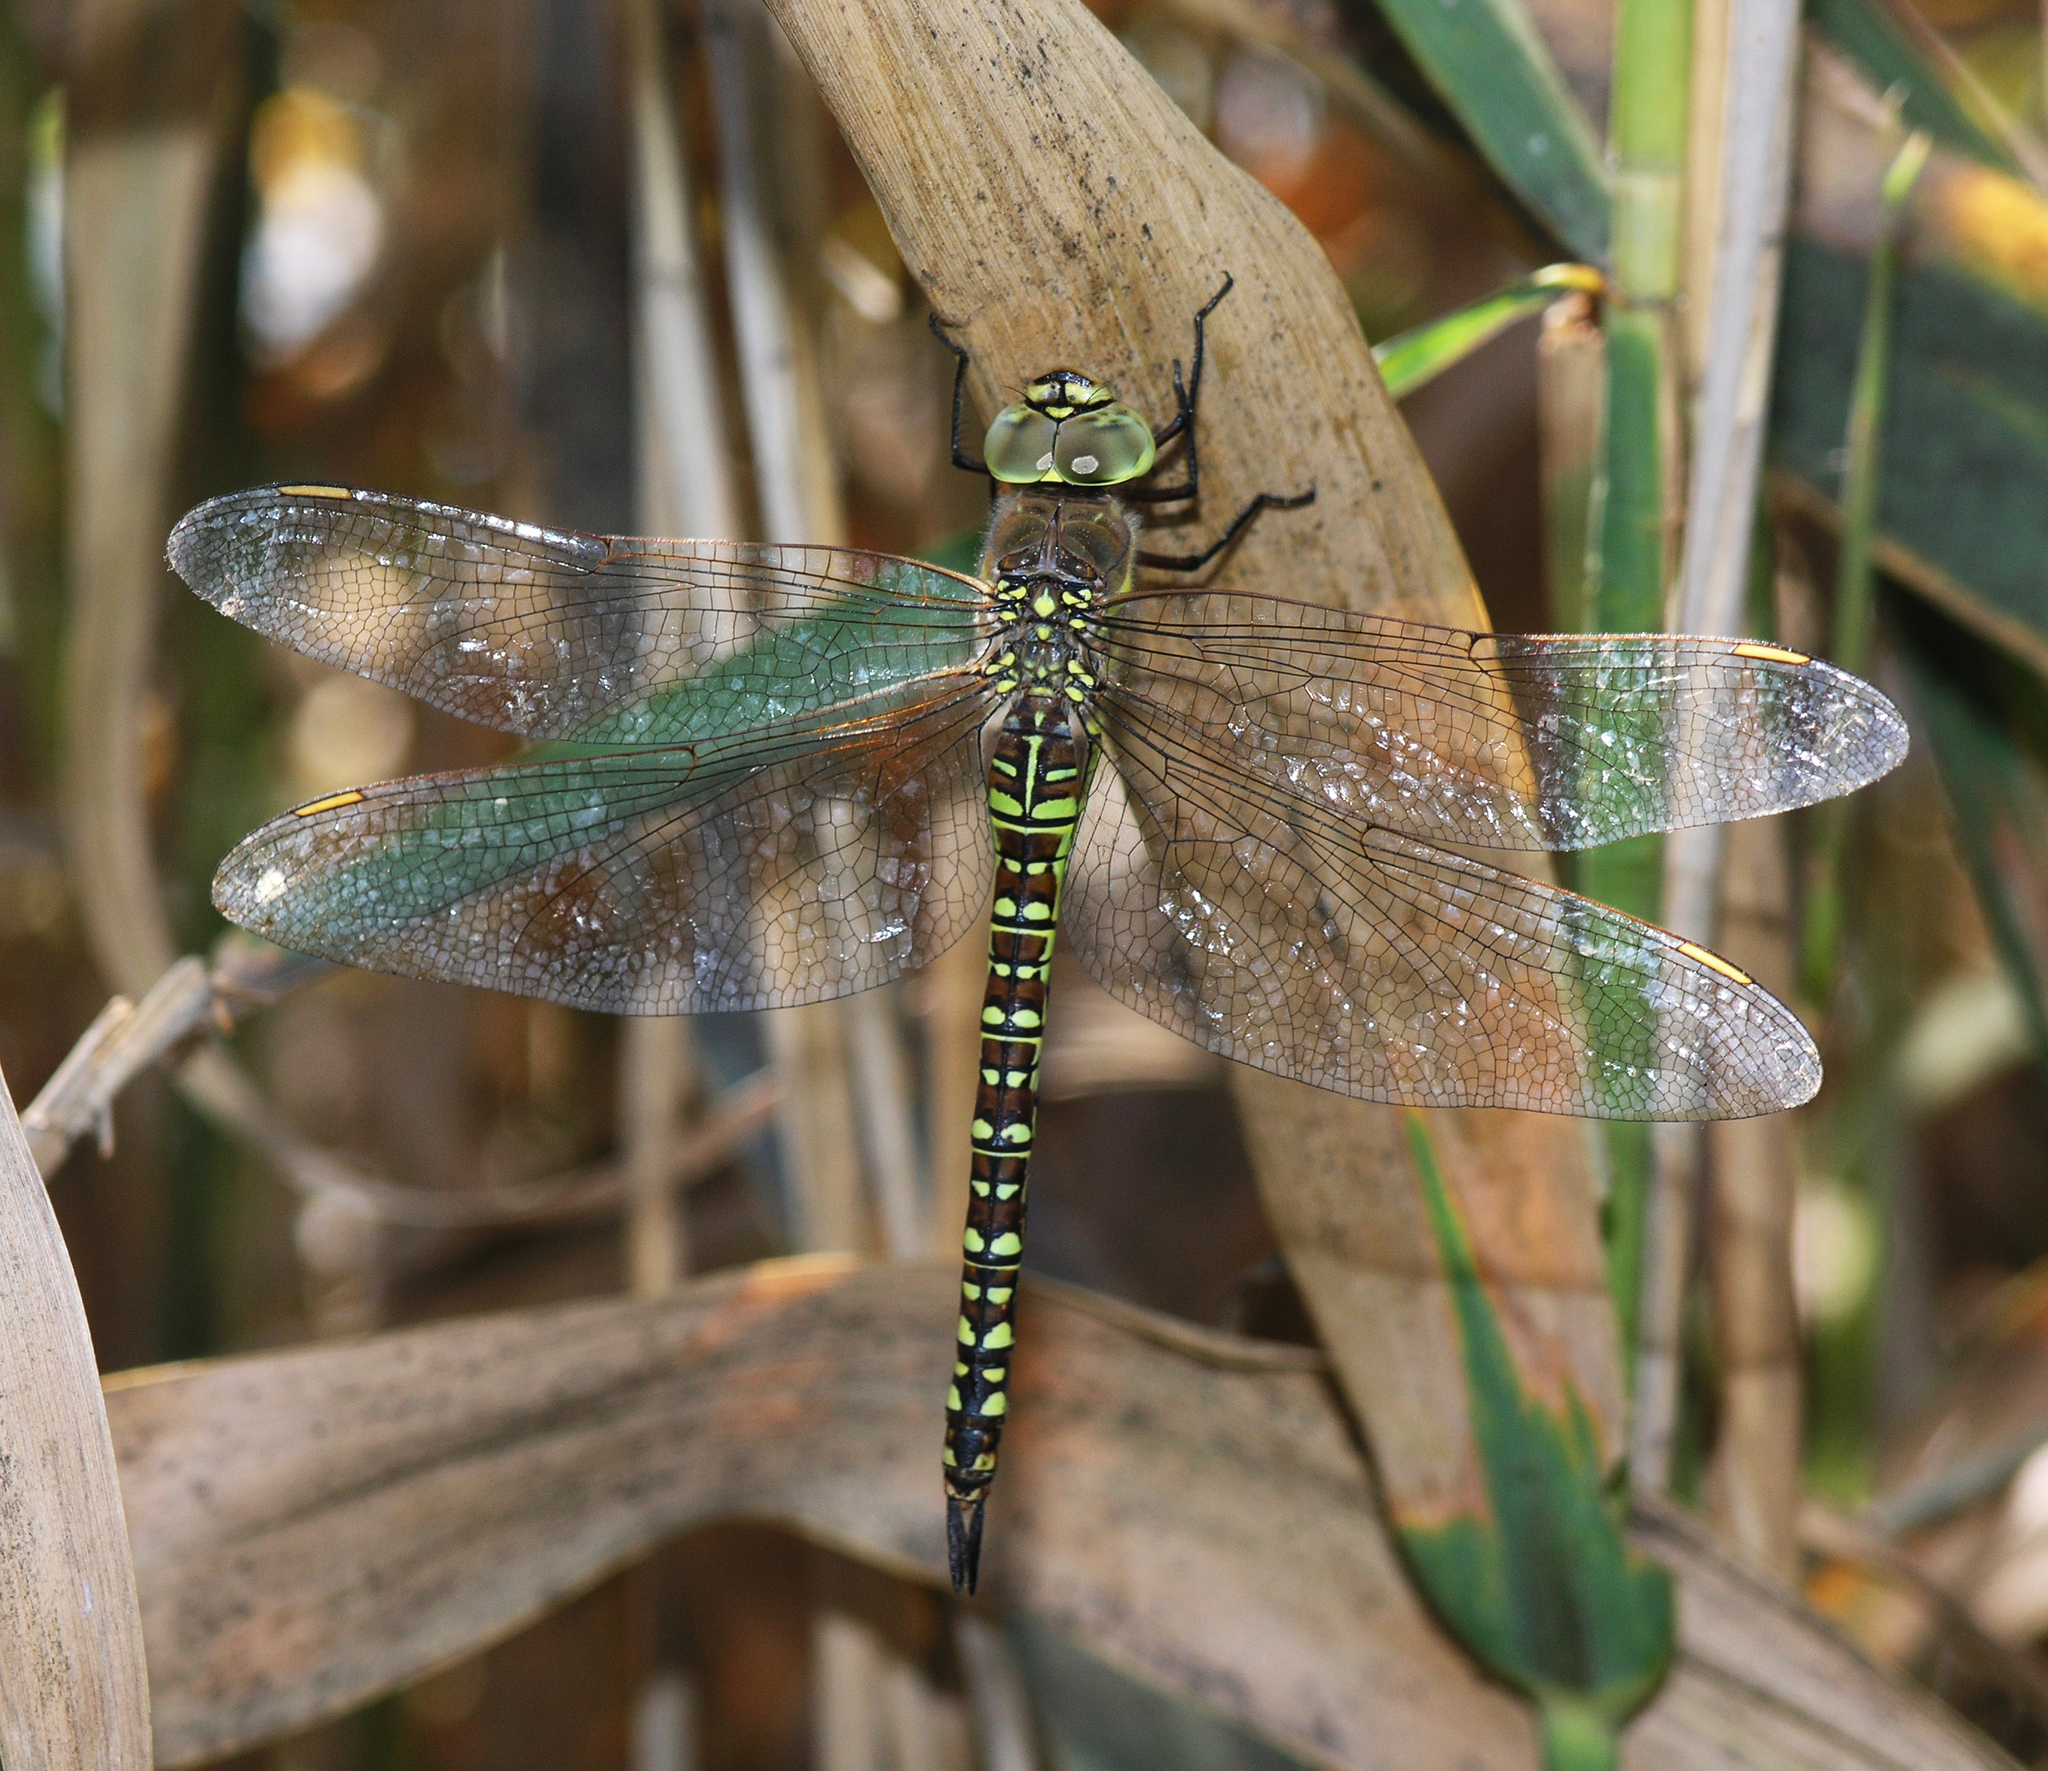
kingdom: Animalia
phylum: Arthropoda
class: Insecta
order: Odonata
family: Aeshnidae
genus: Aeshna
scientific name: Aeshna soneharai
